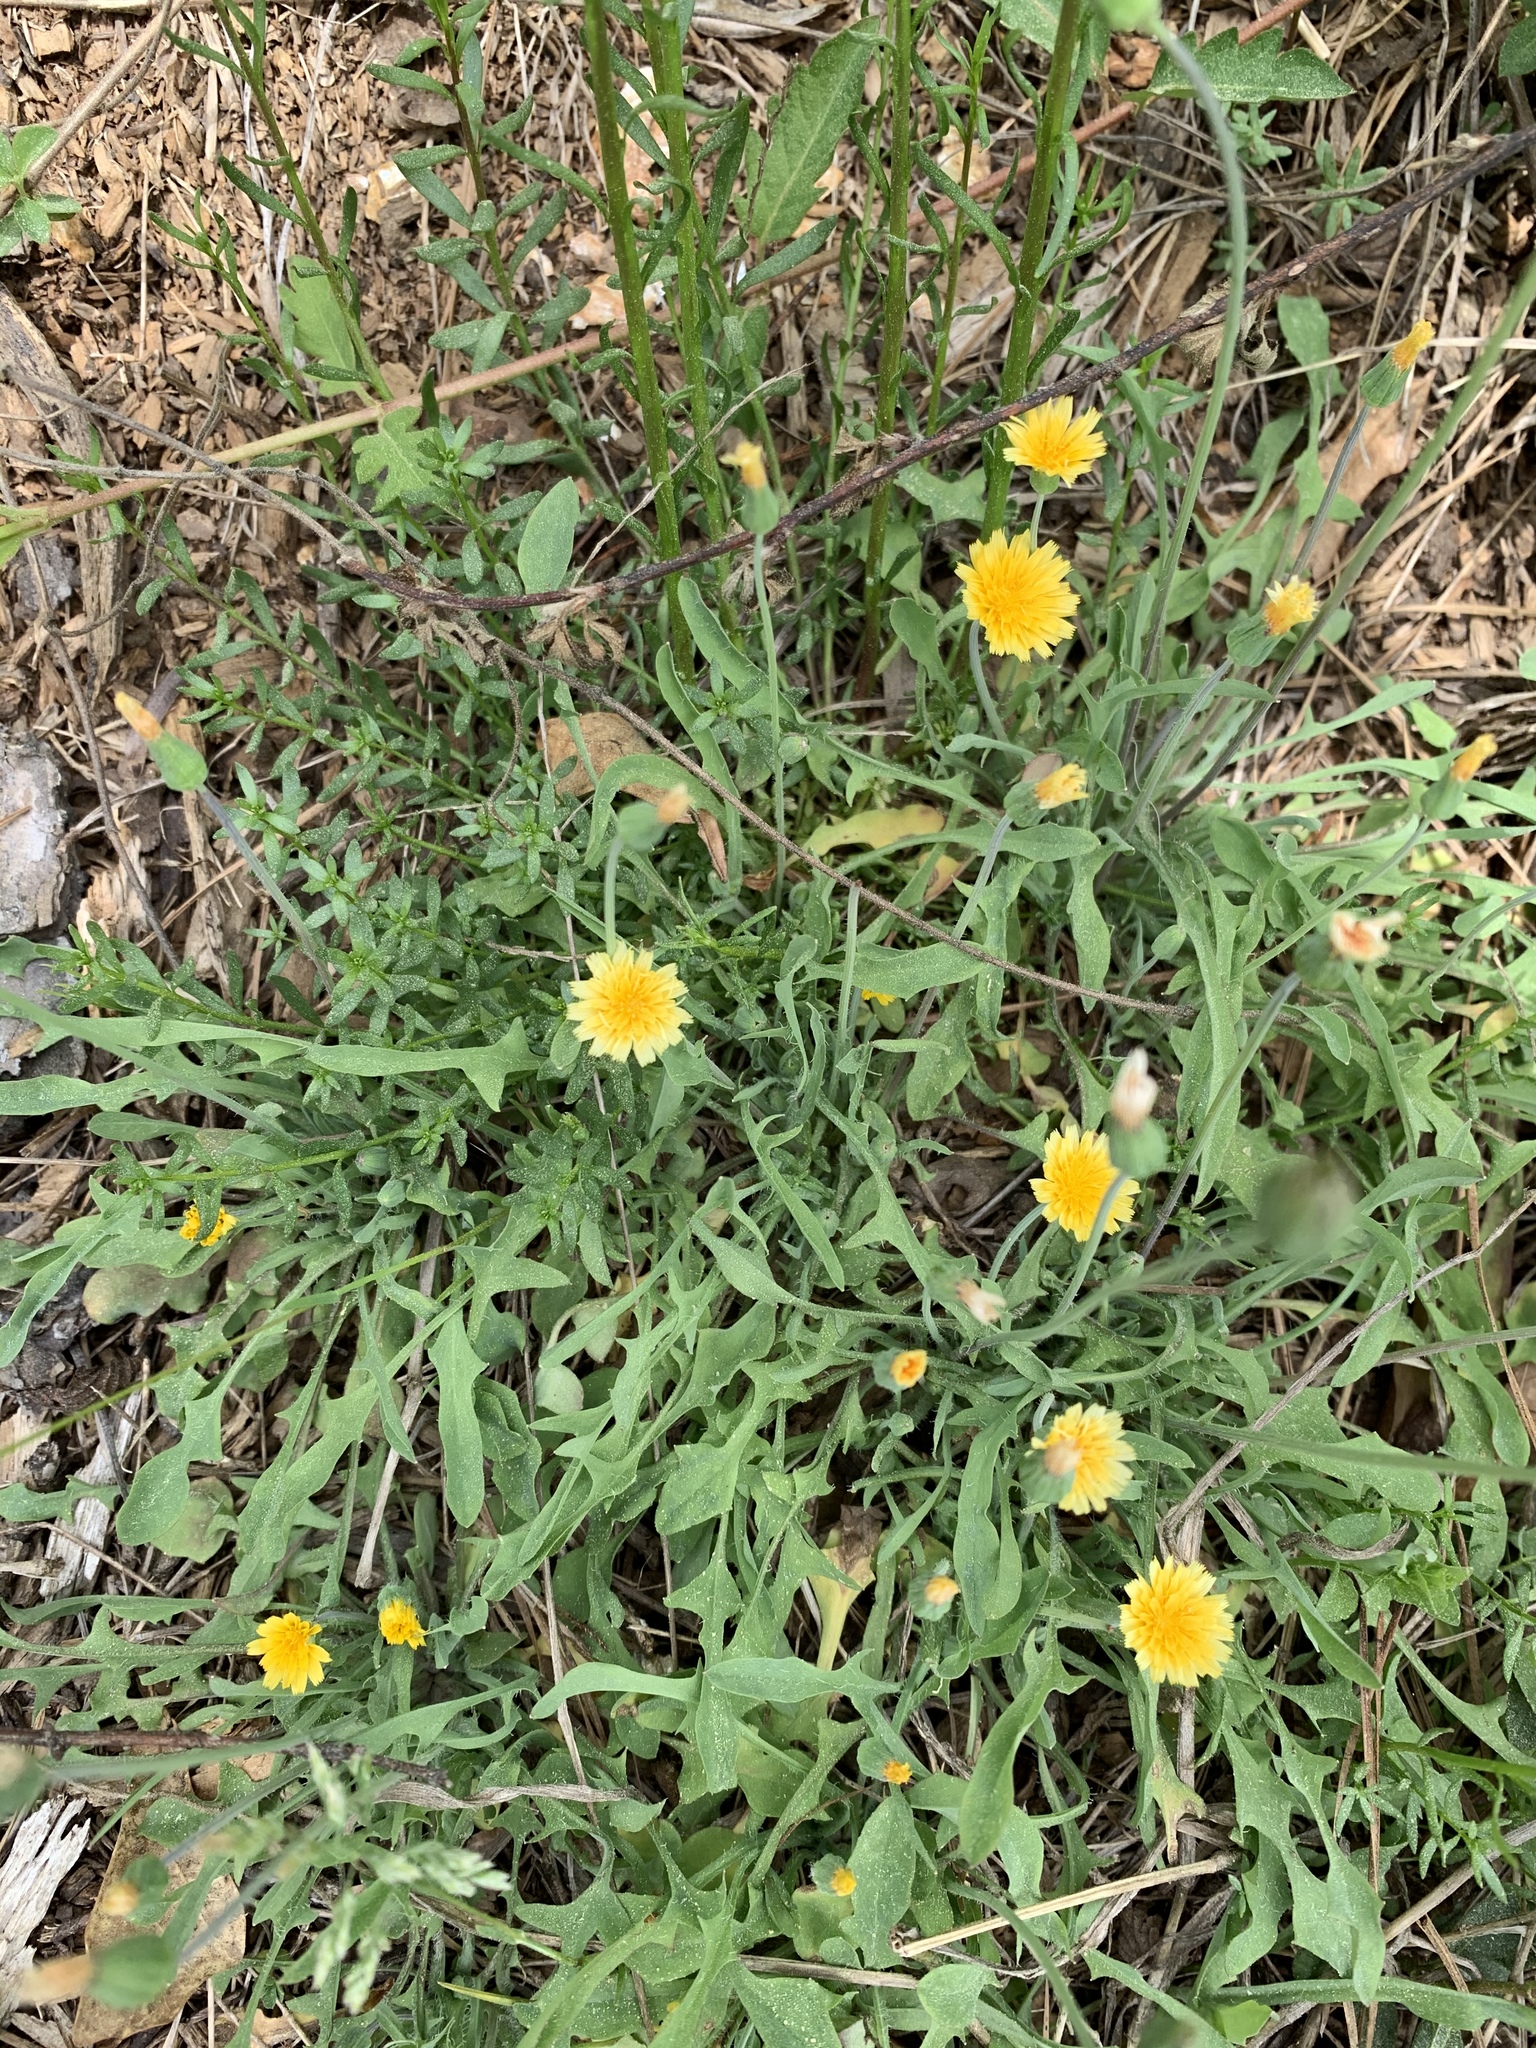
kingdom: Plantae
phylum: Tracheophyta
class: Magnoliopsida
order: Asterales
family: Asteraceae
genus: Krigia
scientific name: Krigia virginica
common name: Virginia dwarf-dandelion
